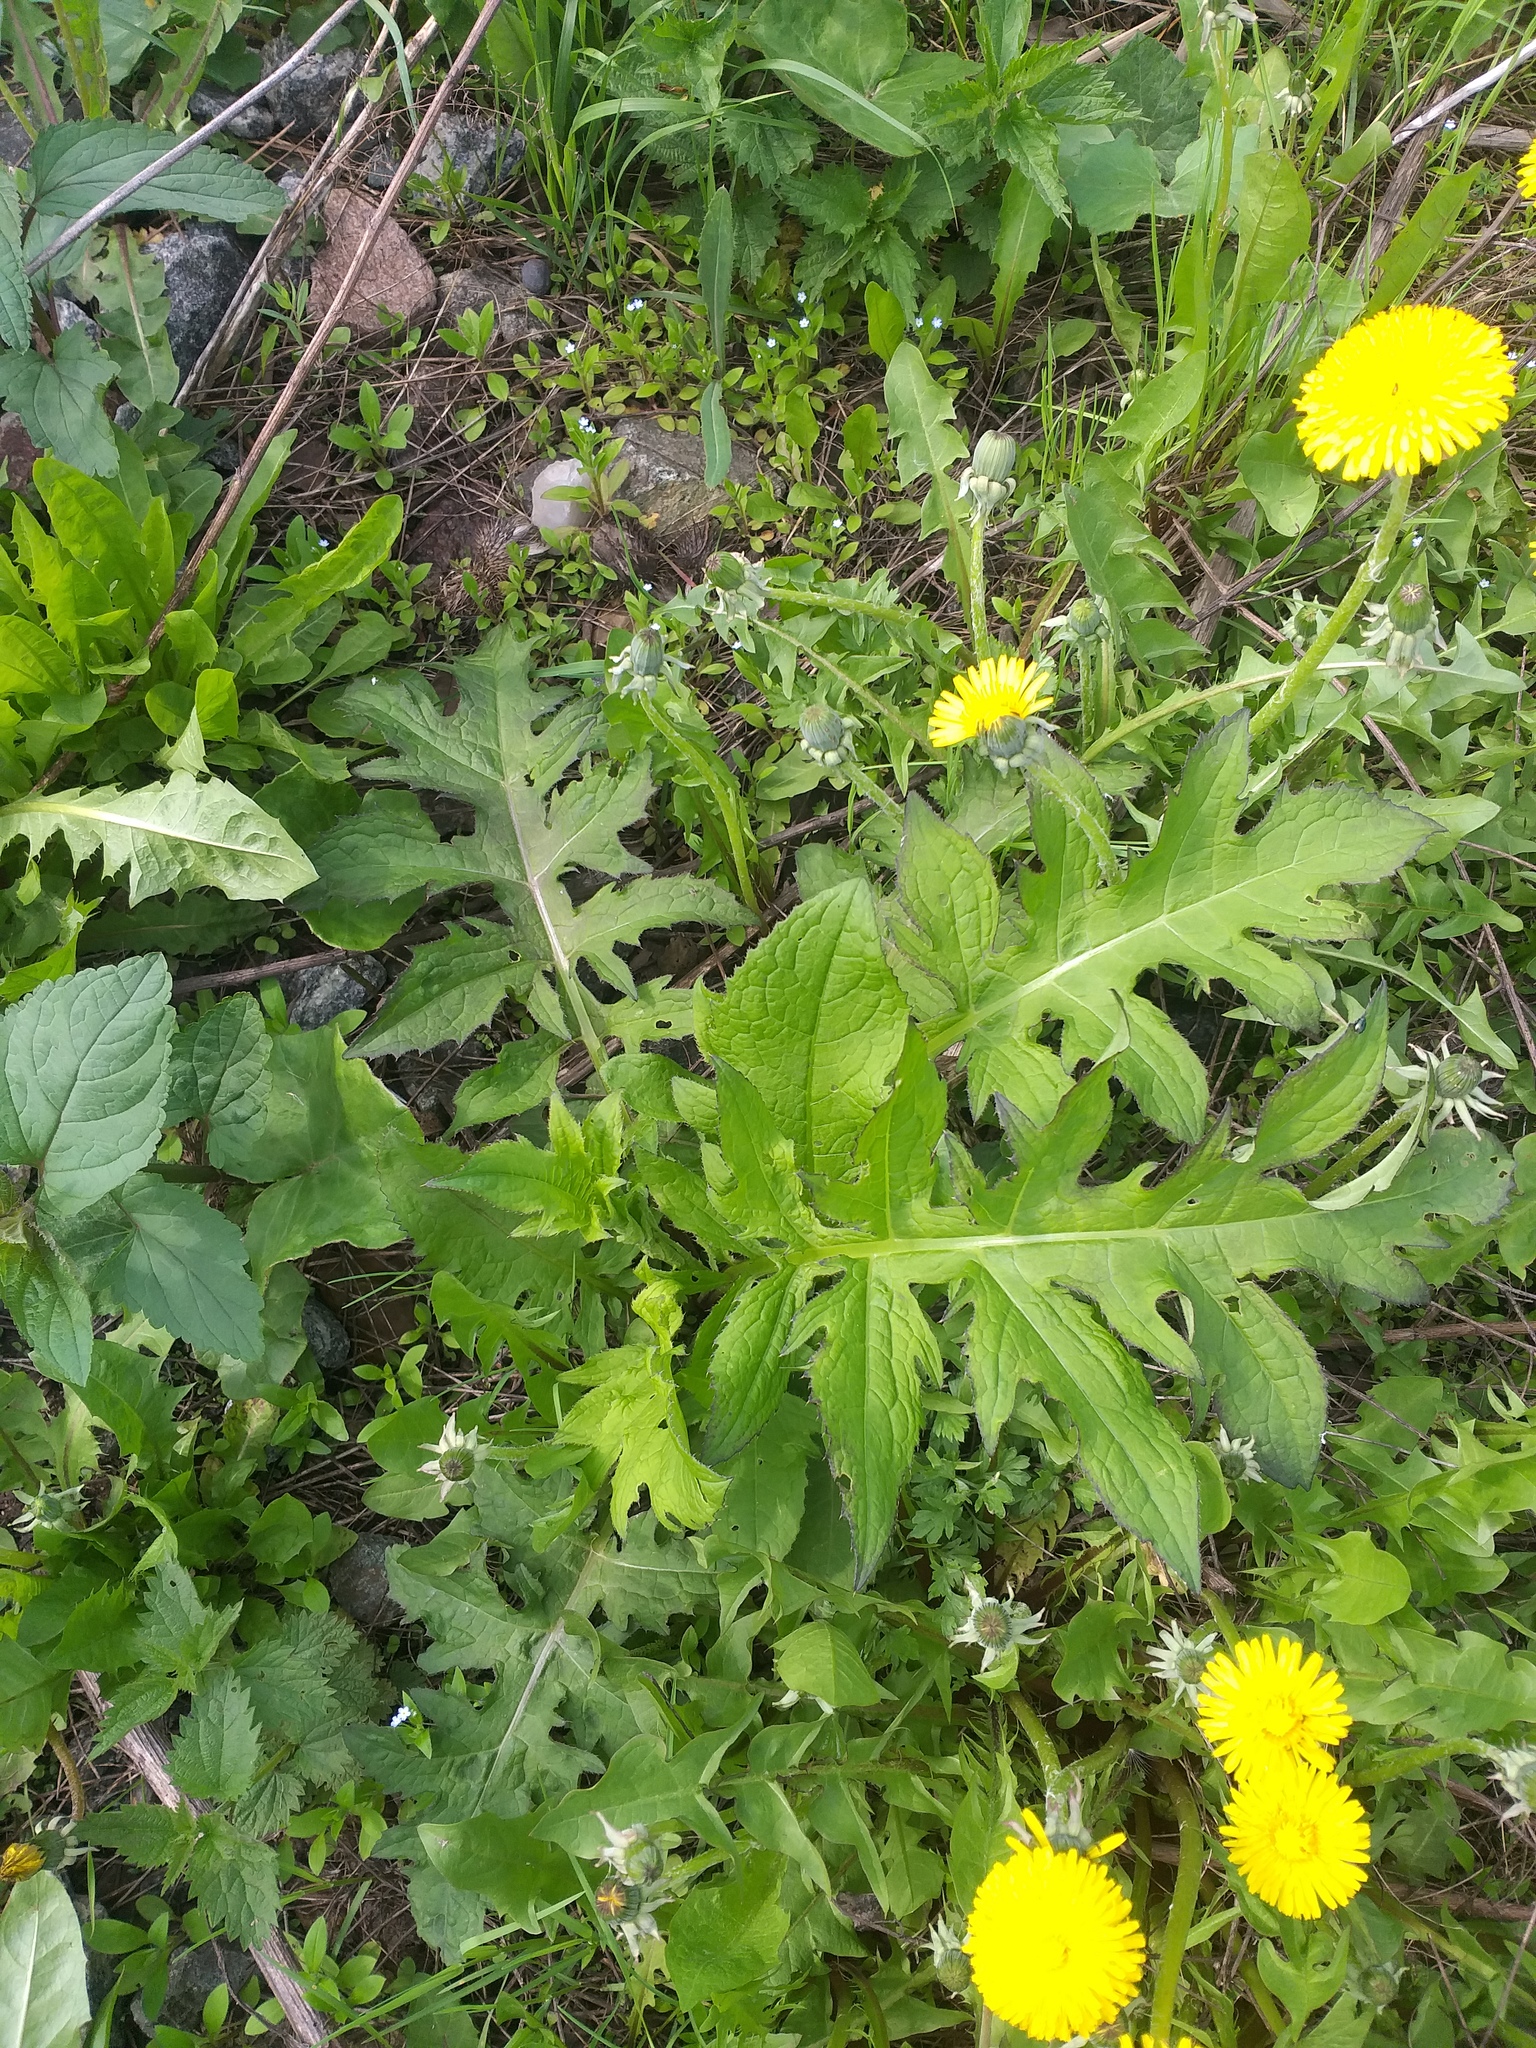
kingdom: Plantae
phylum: Tracheophyta
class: Magnoliopsida
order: Asterales
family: Asteraceae
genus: Cirsium
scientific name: Cirsium oleraceum
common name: Cabbage thistle
